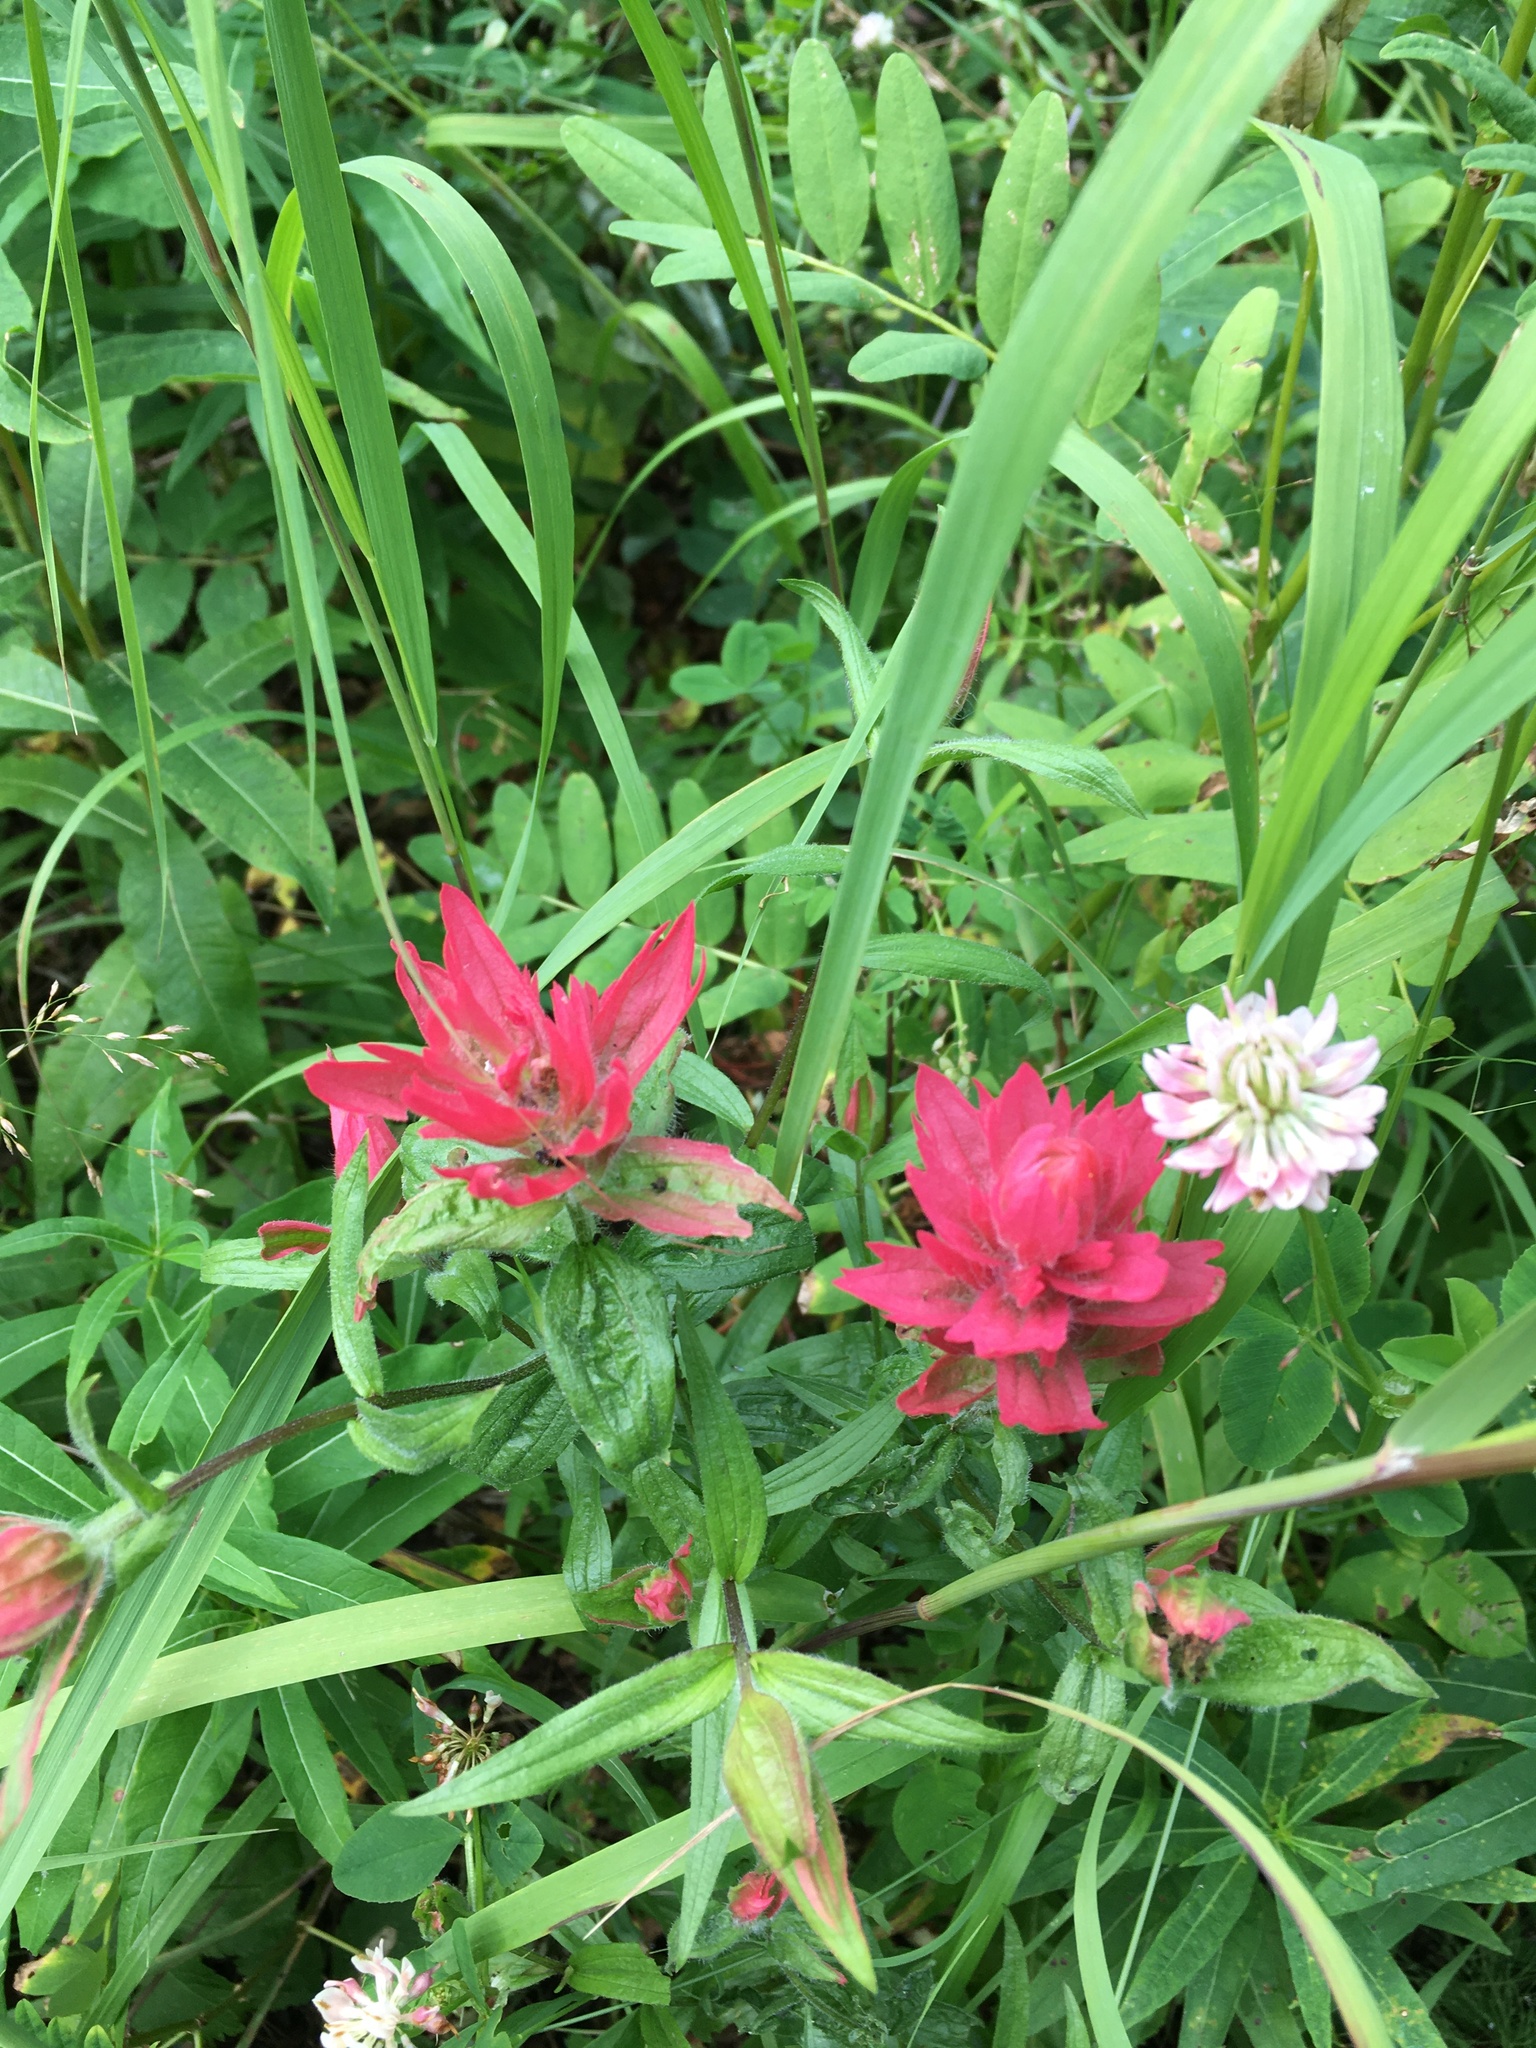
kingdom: Plantae
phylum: Tracheophyta
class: Magnoliopsida
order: Lamiales
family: Orobanchaceae
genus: Castilleja
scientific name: Castilleja miniata
